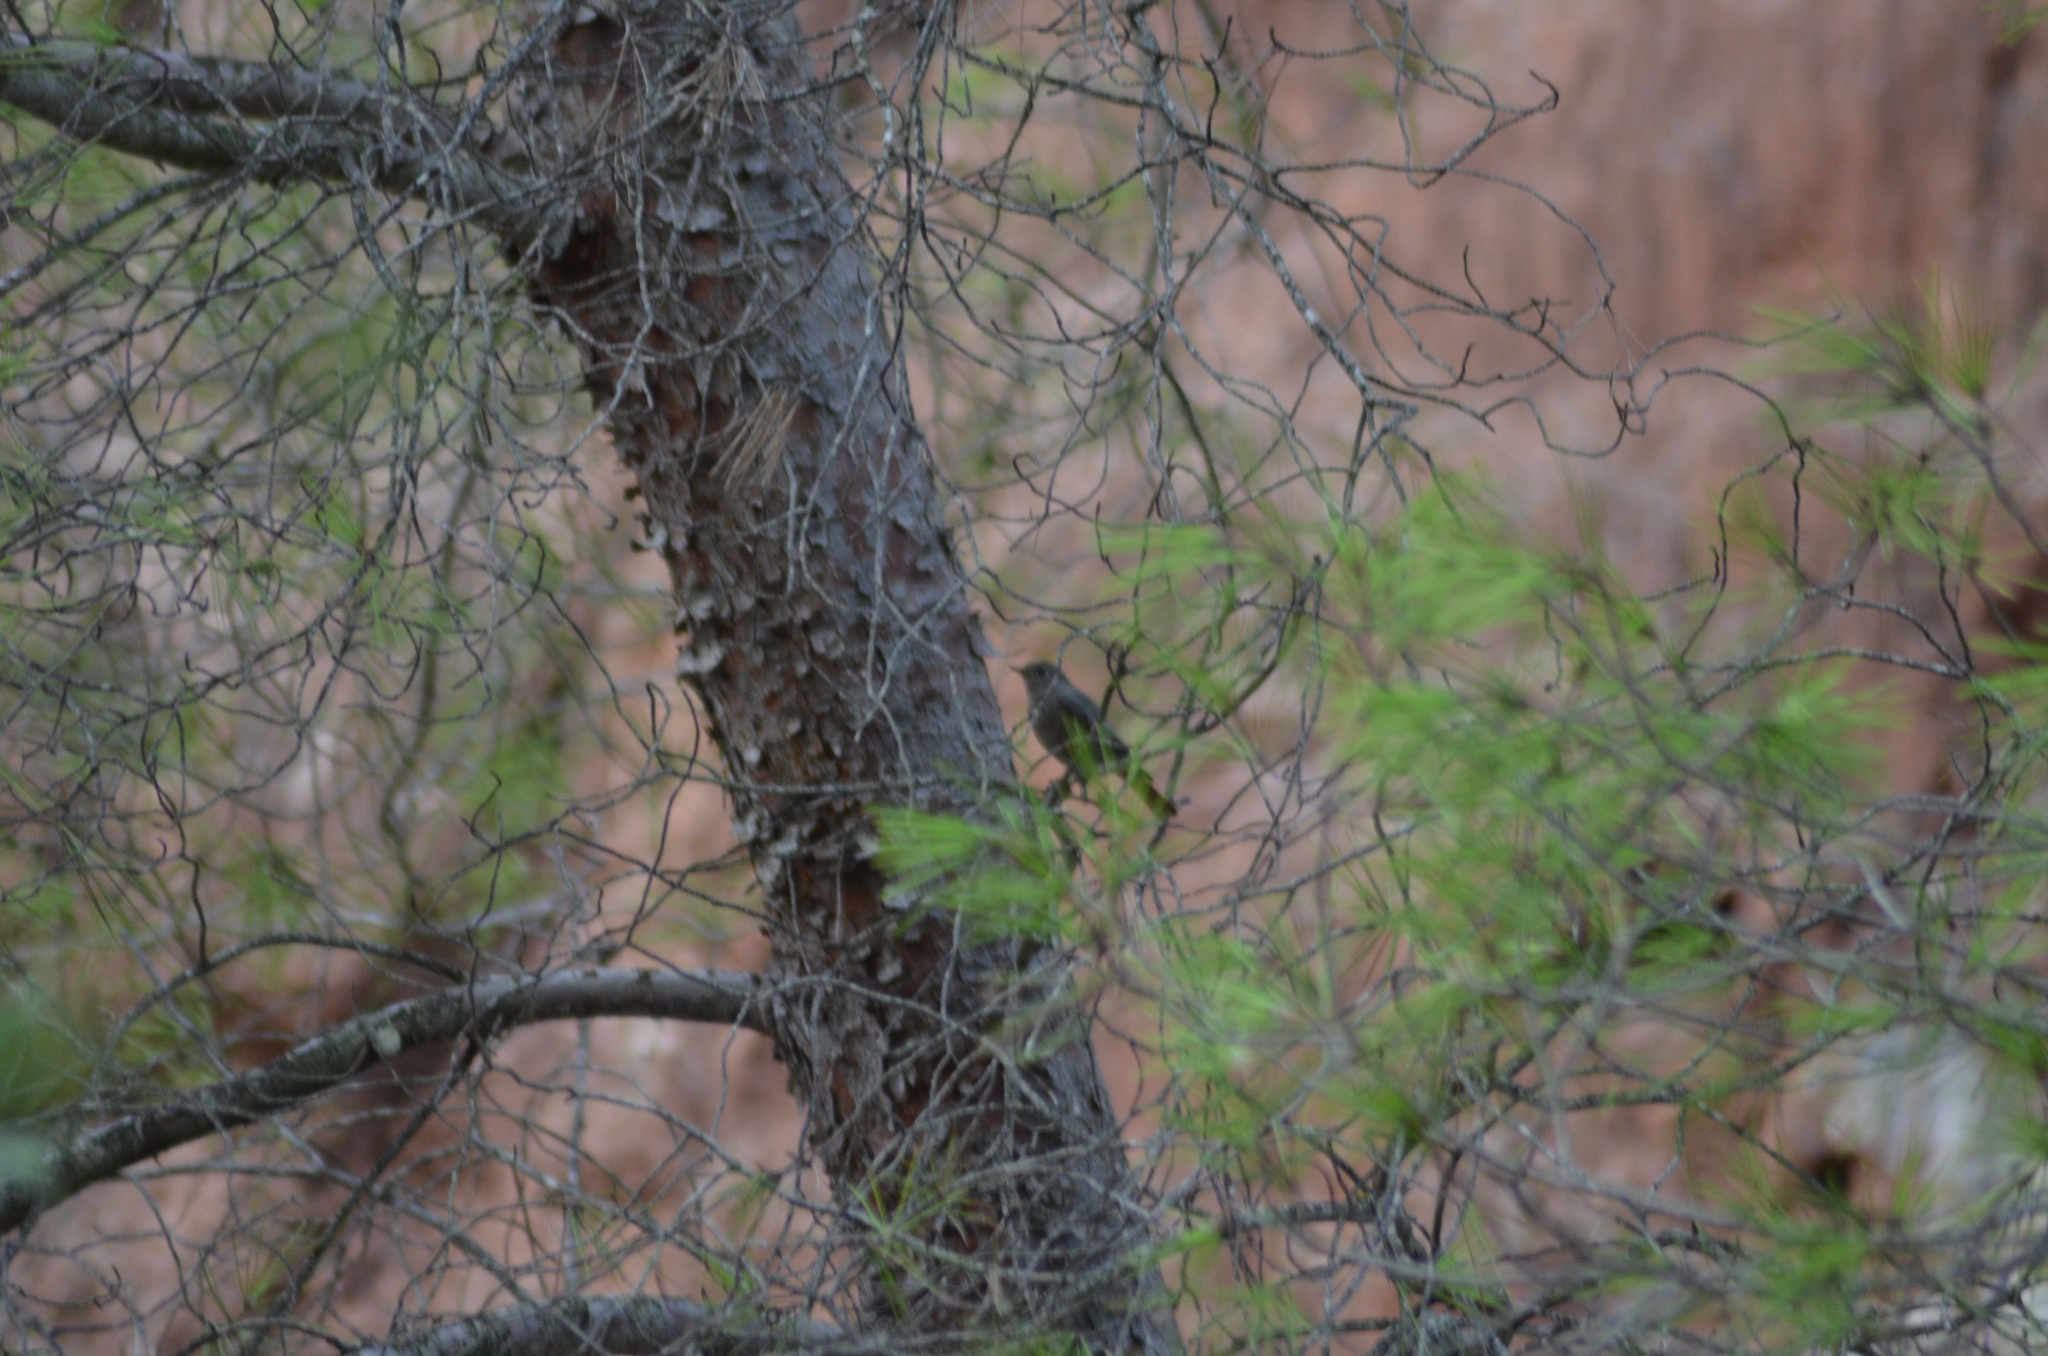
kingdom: Animalia
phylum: Chordata
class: Aves
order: Passeriformes
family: Muscicapidae
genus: Phoenicurus
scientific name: Phoenicurus ochruros
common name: Black redstart
